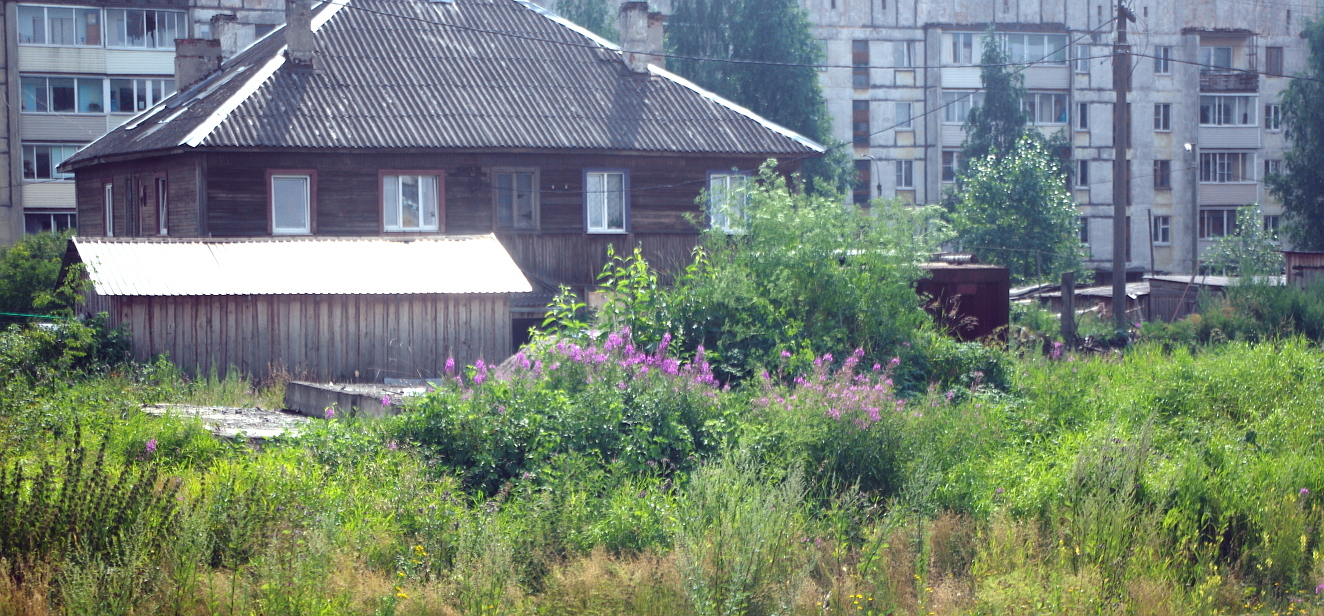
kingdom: Plantae
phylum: Tracheophyta
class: Magnoliopsida
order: Myrtales
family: Onagraceae
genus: Chamaenerion
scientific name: Chamaenerion angustifolium
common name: Fireweed
